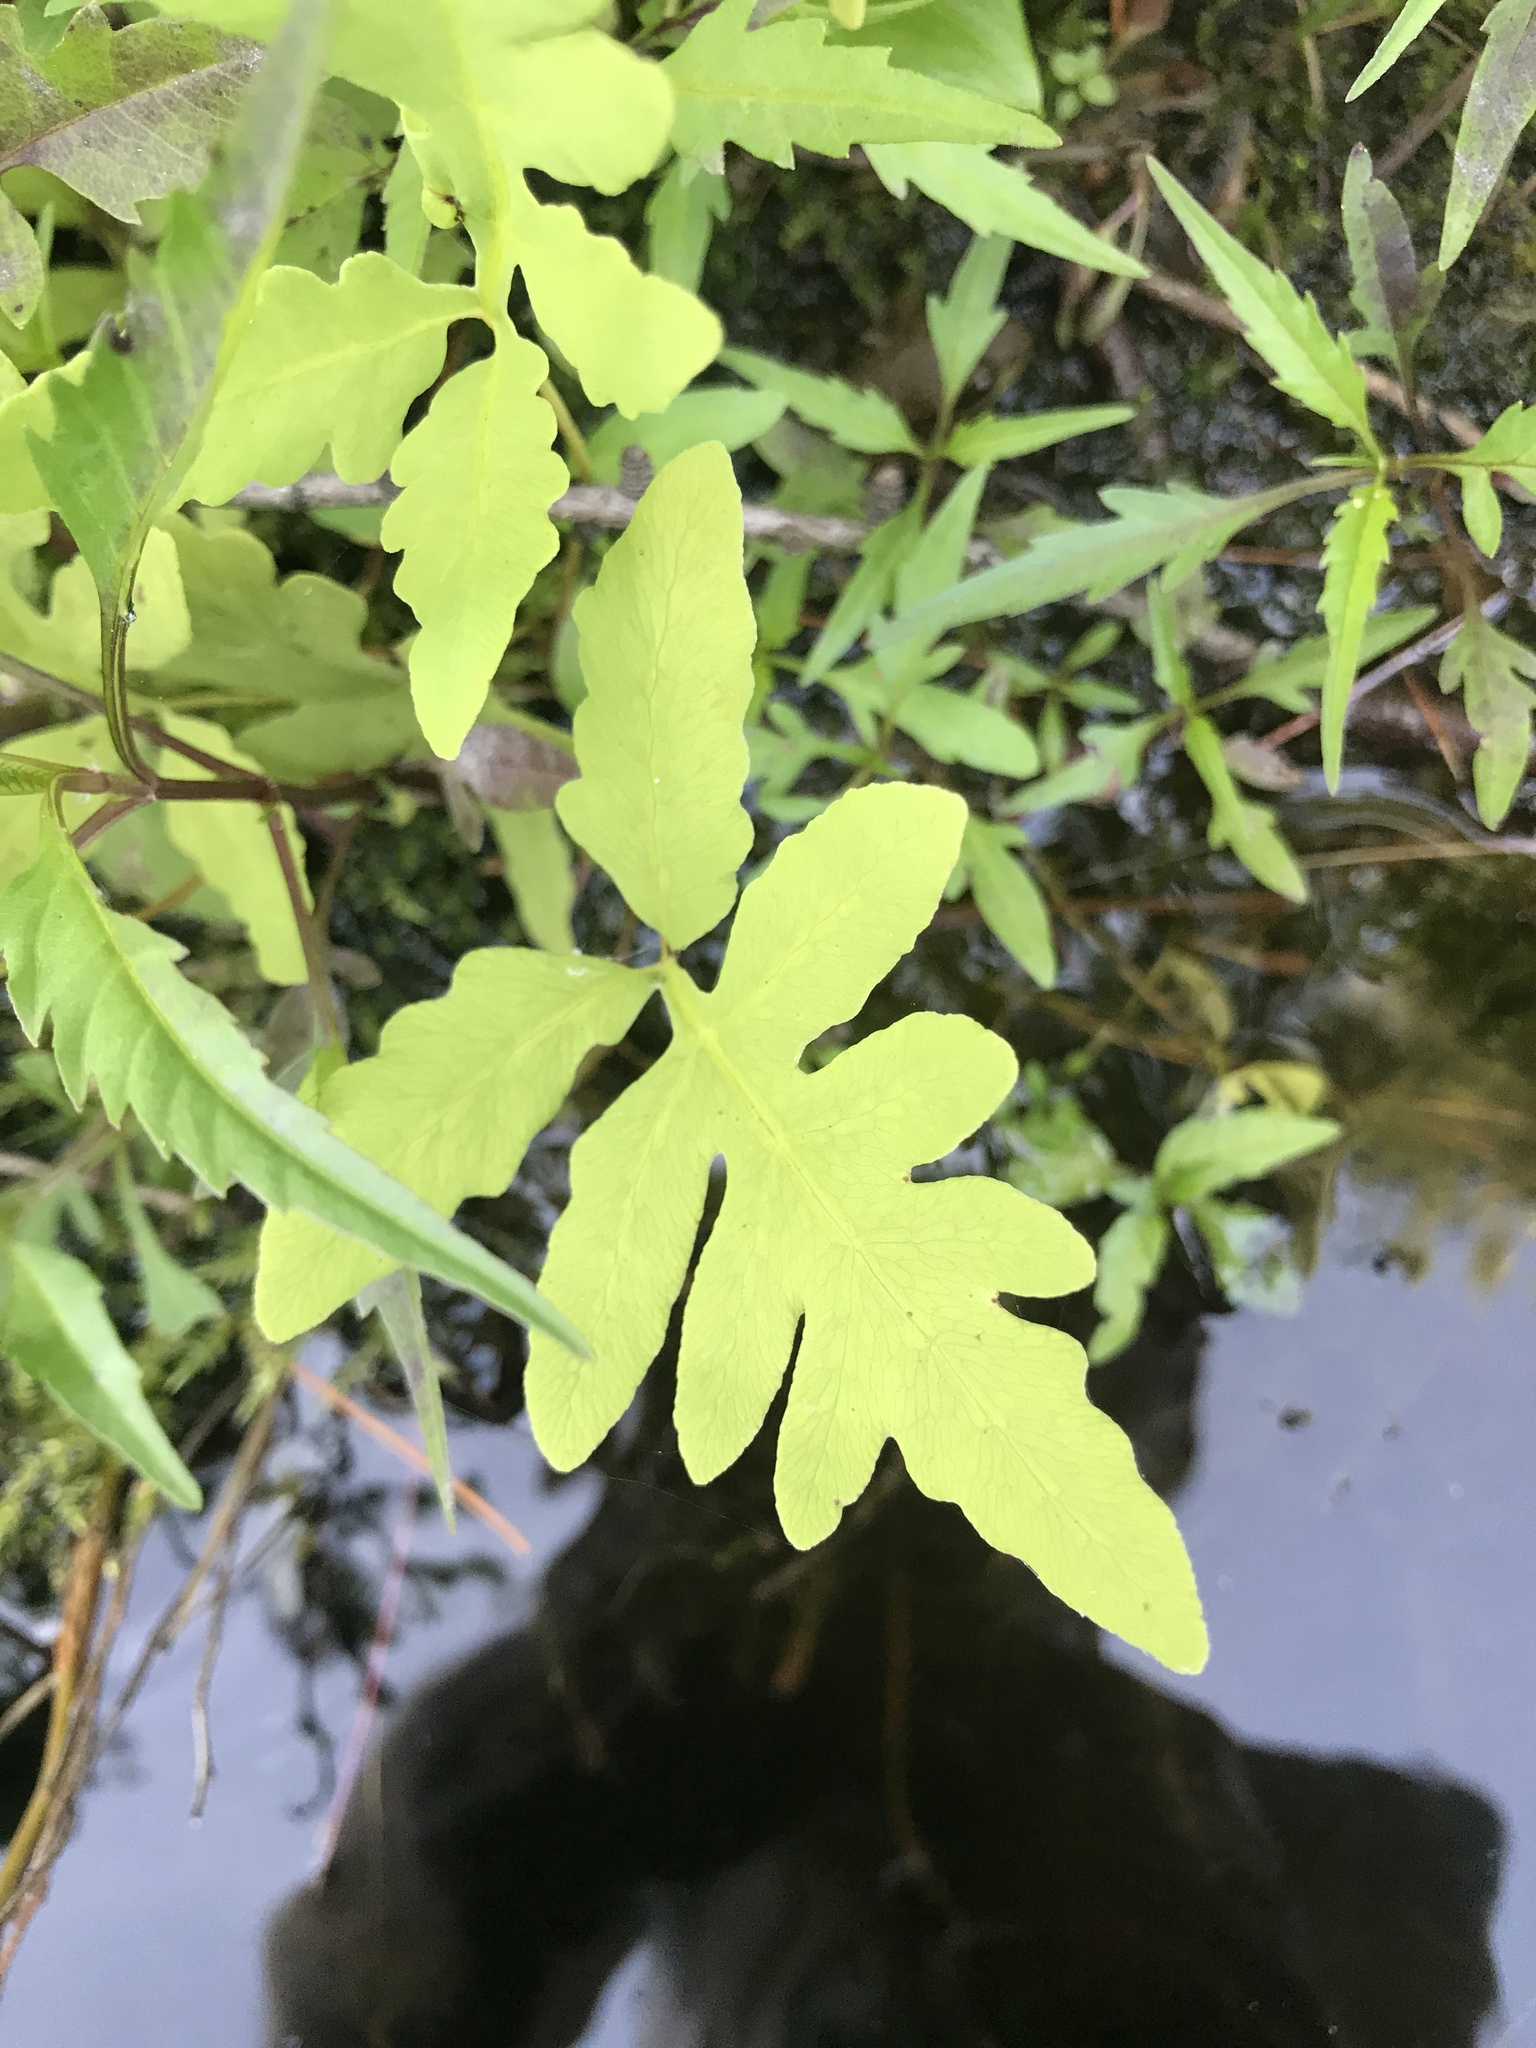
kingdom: Plantae
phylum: Tracheophyta
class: Polypodiopsida
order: Polypodiales
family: Onocleaceae
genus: Onoclea
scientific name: Onoclea sensibilis
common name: Sensitive fern
